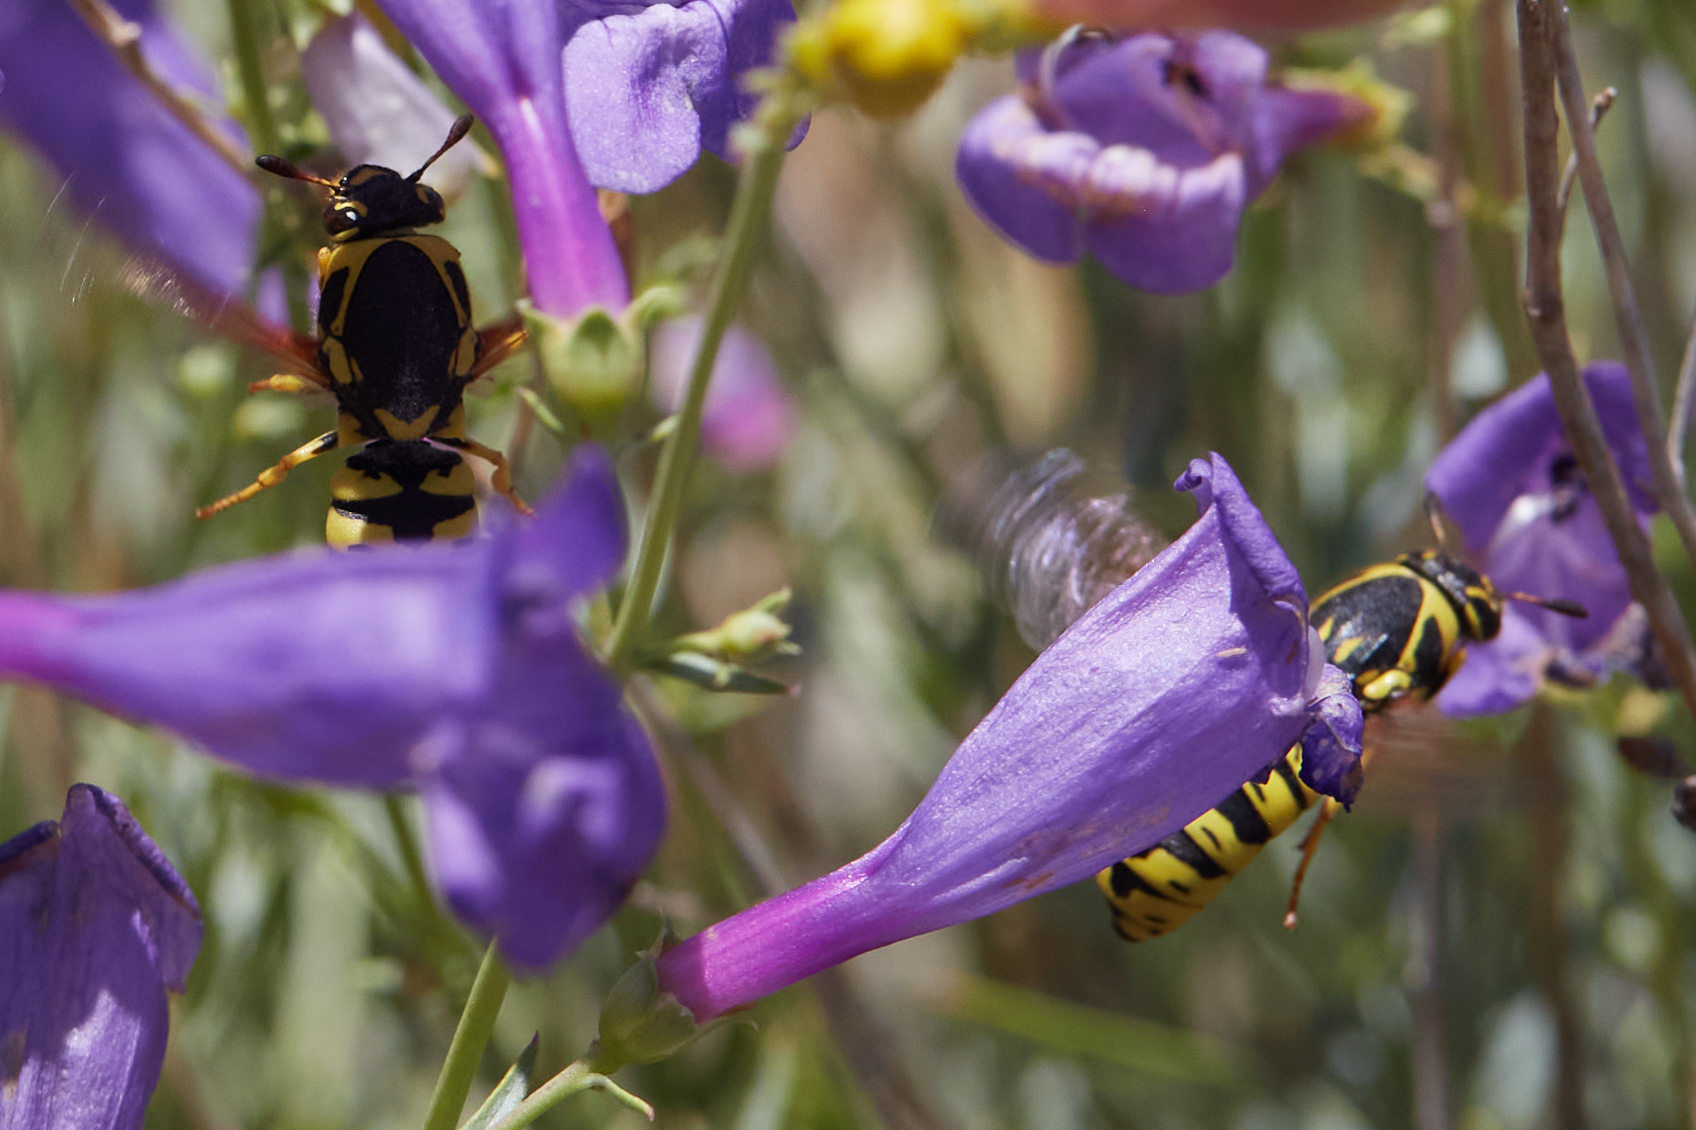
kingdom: Animalia
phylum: Arthropoda
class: Insecta
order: Hymenoptera
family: Masaridae
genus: Pseudomasaris
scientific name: Pseudomasaris vespoides
